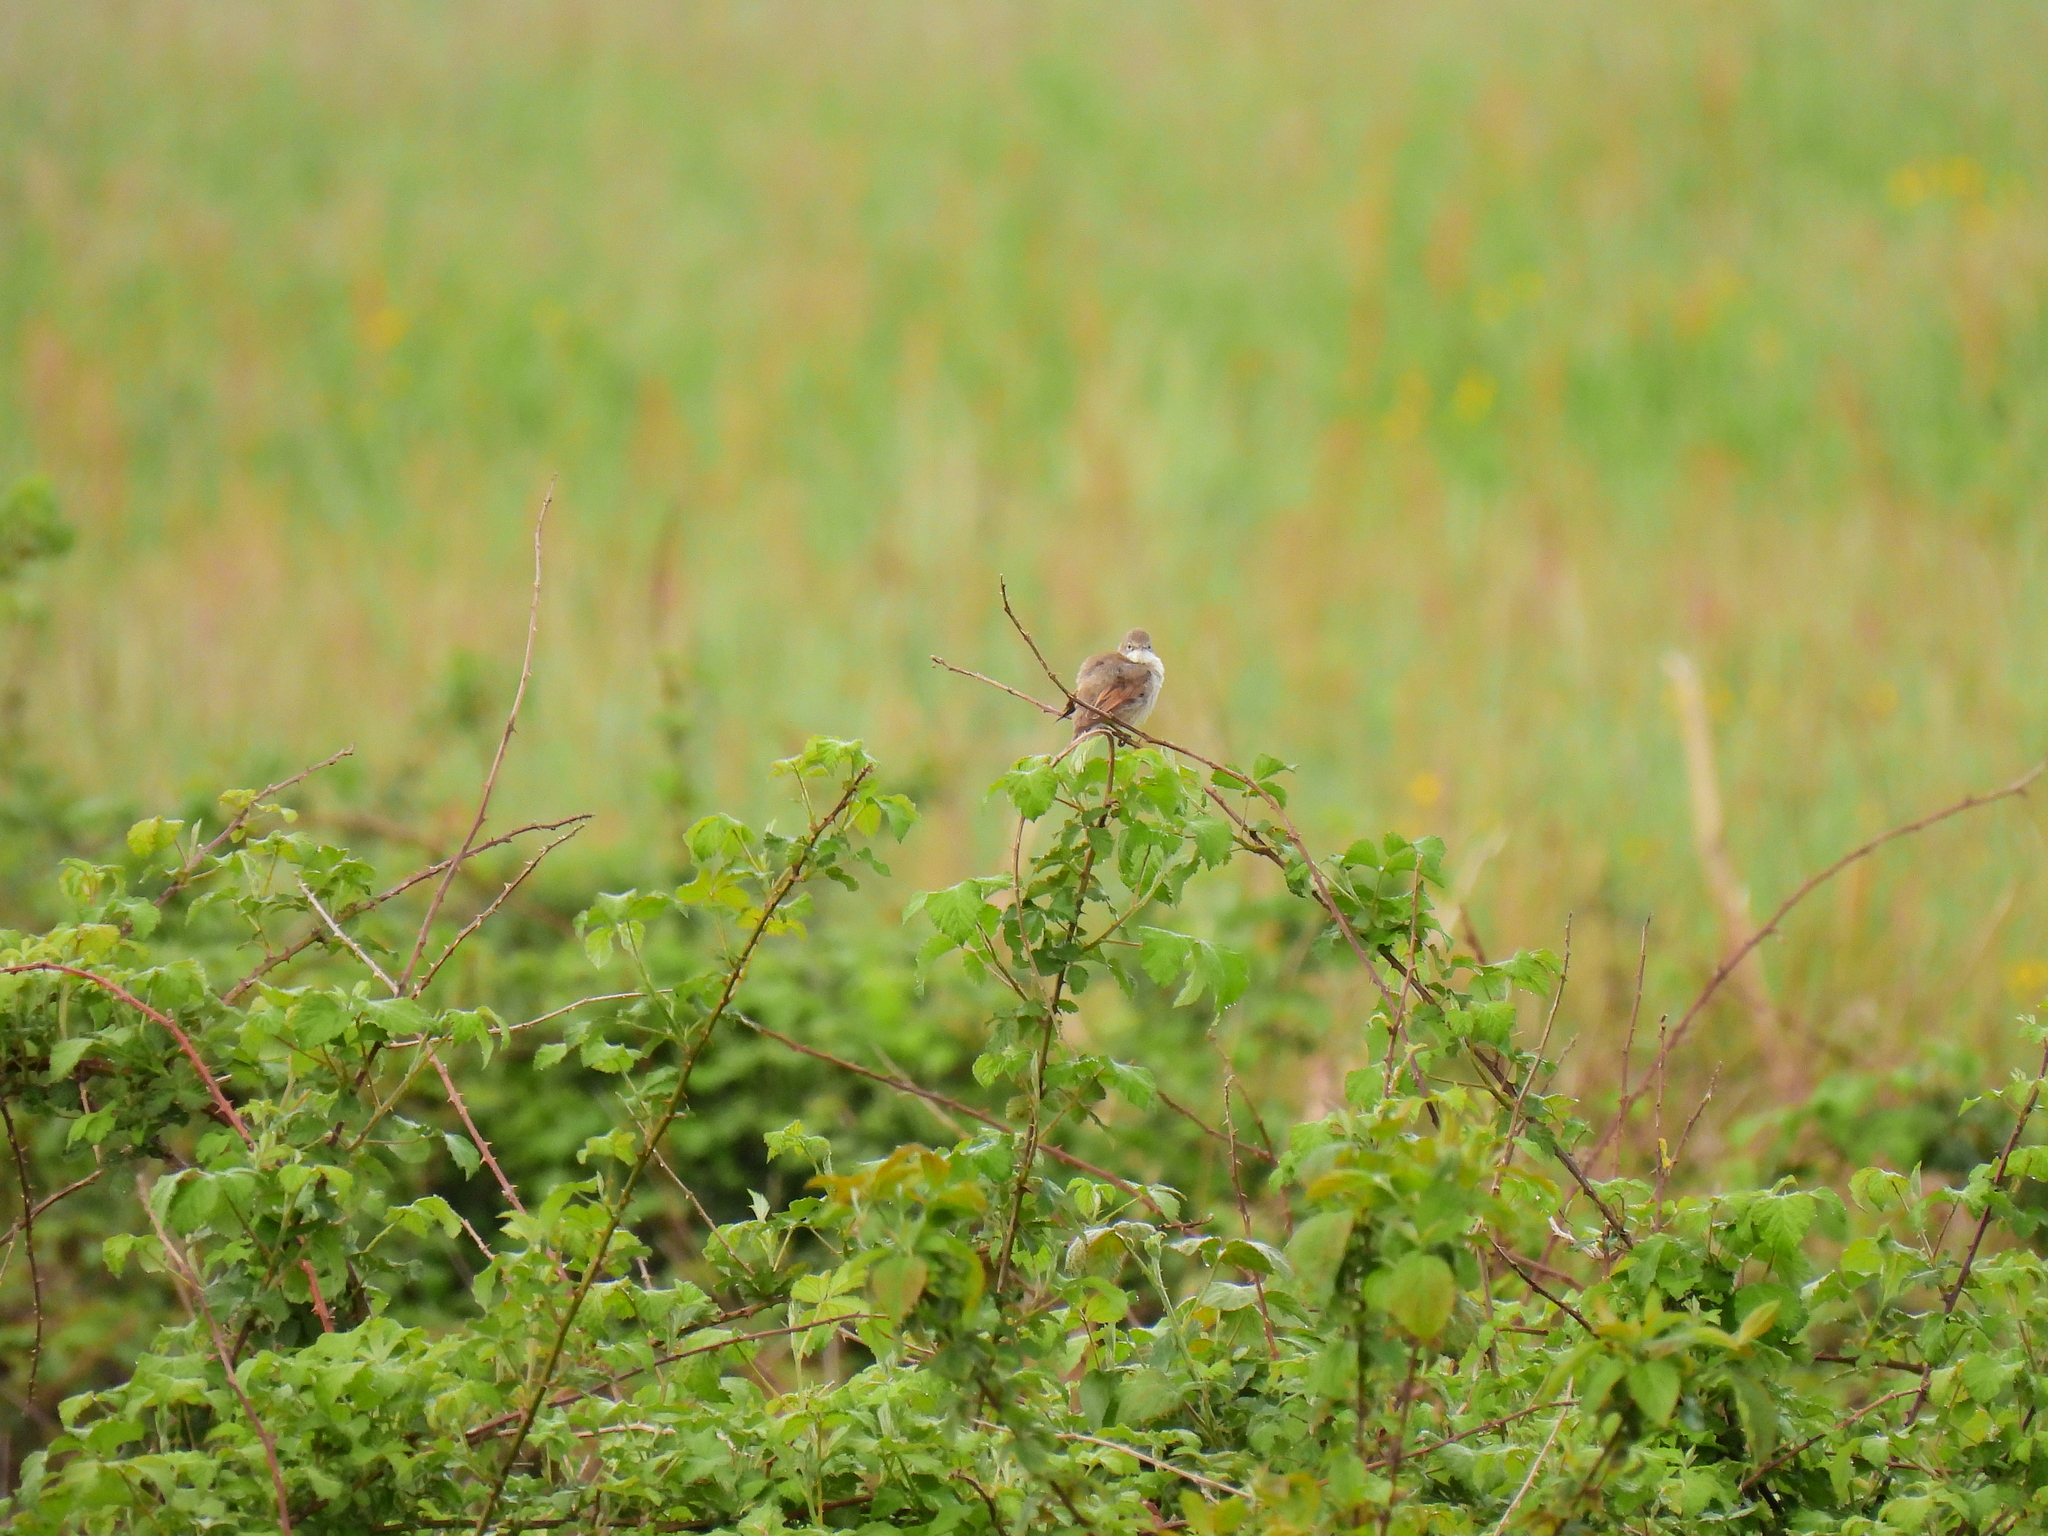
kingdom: Animalia
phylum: Chordata
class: Aves
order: Passeriformes
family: Sylviidae
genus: Sylvia
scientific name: Sylvia communis
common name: Common whitethroat
